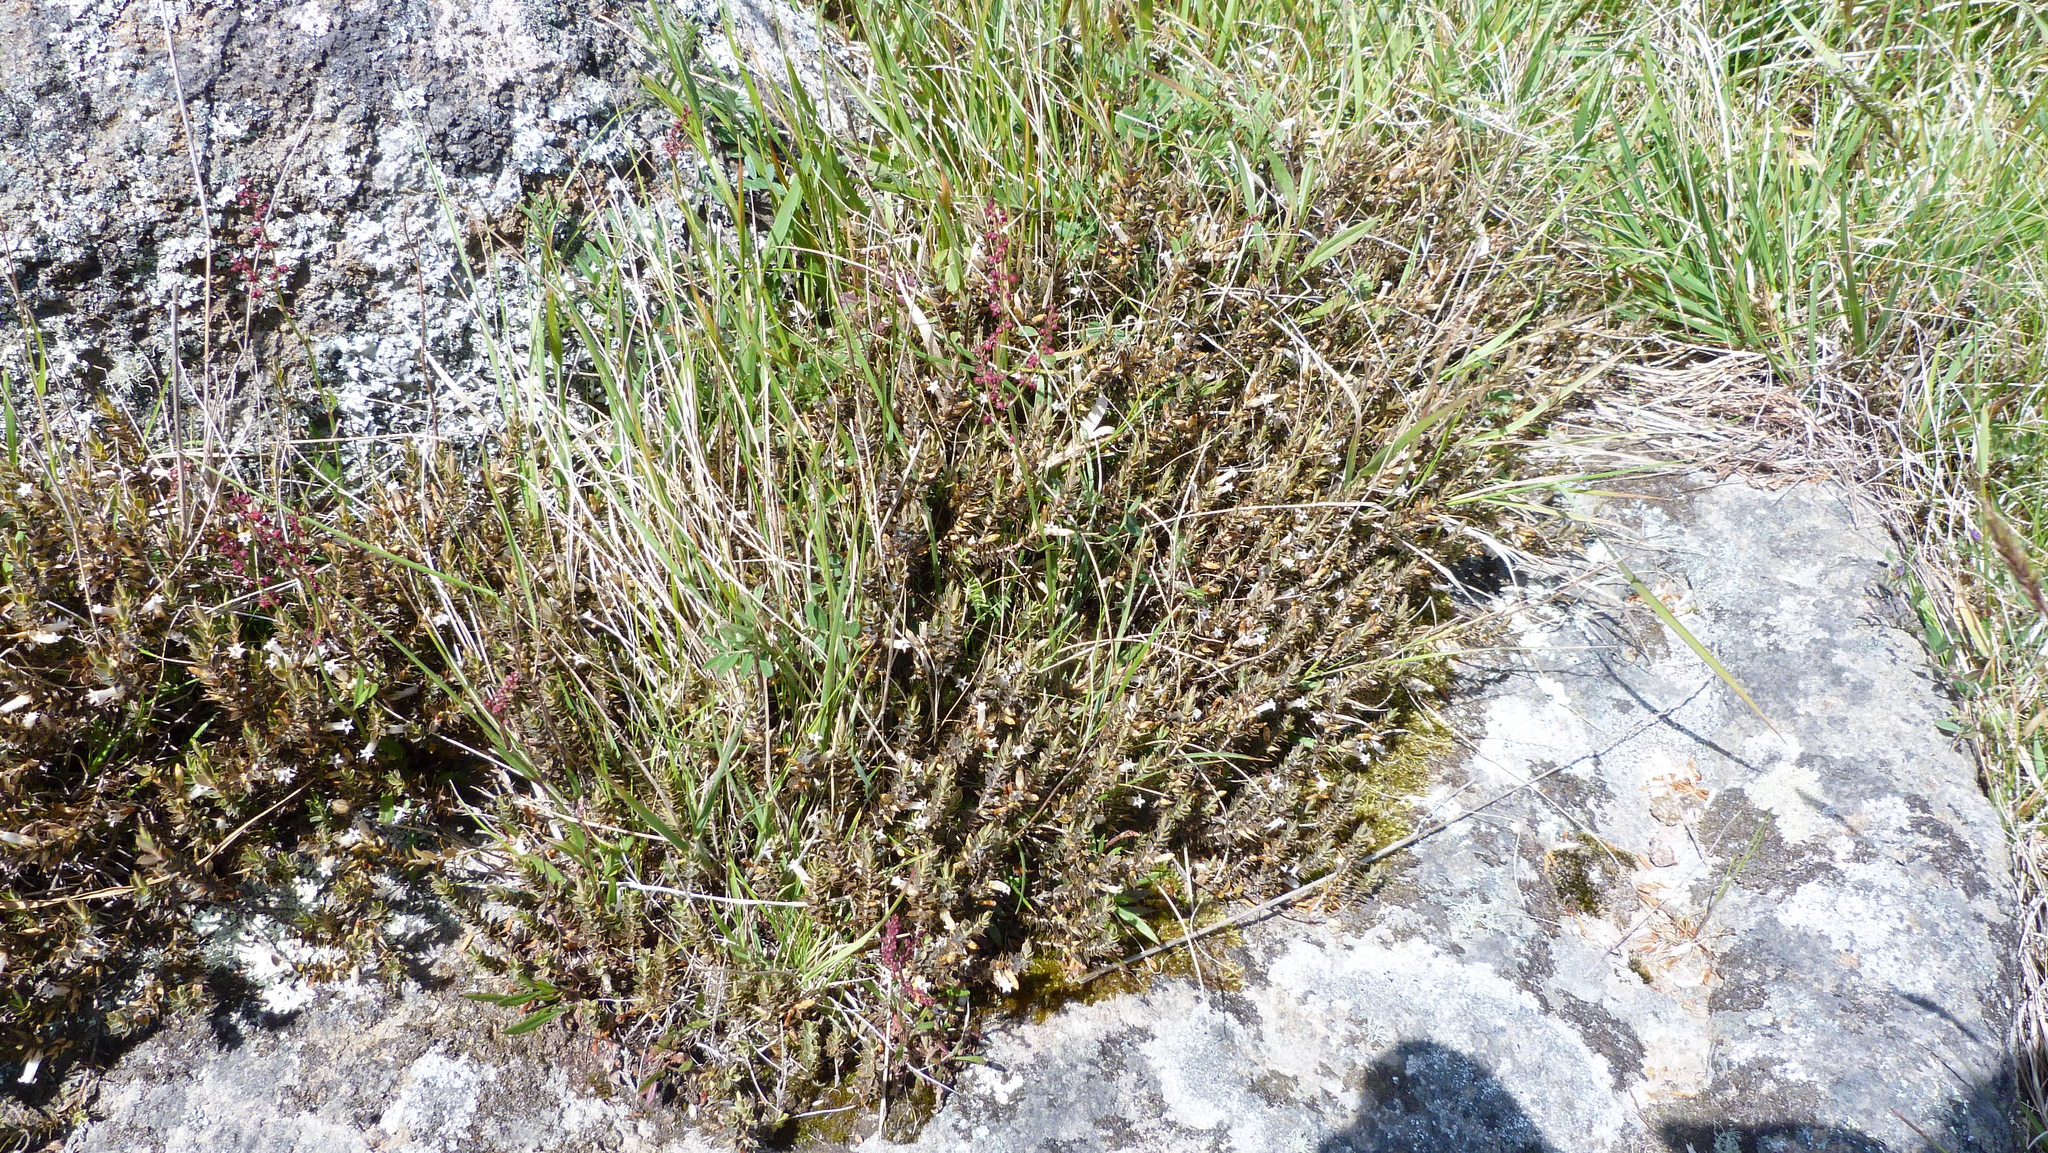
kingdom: Plantae
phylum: Tracheophyta
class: Magnoliopsida
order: Ericales
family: Ericaceae
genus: Styphelia
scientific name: Styphelia nesophila
